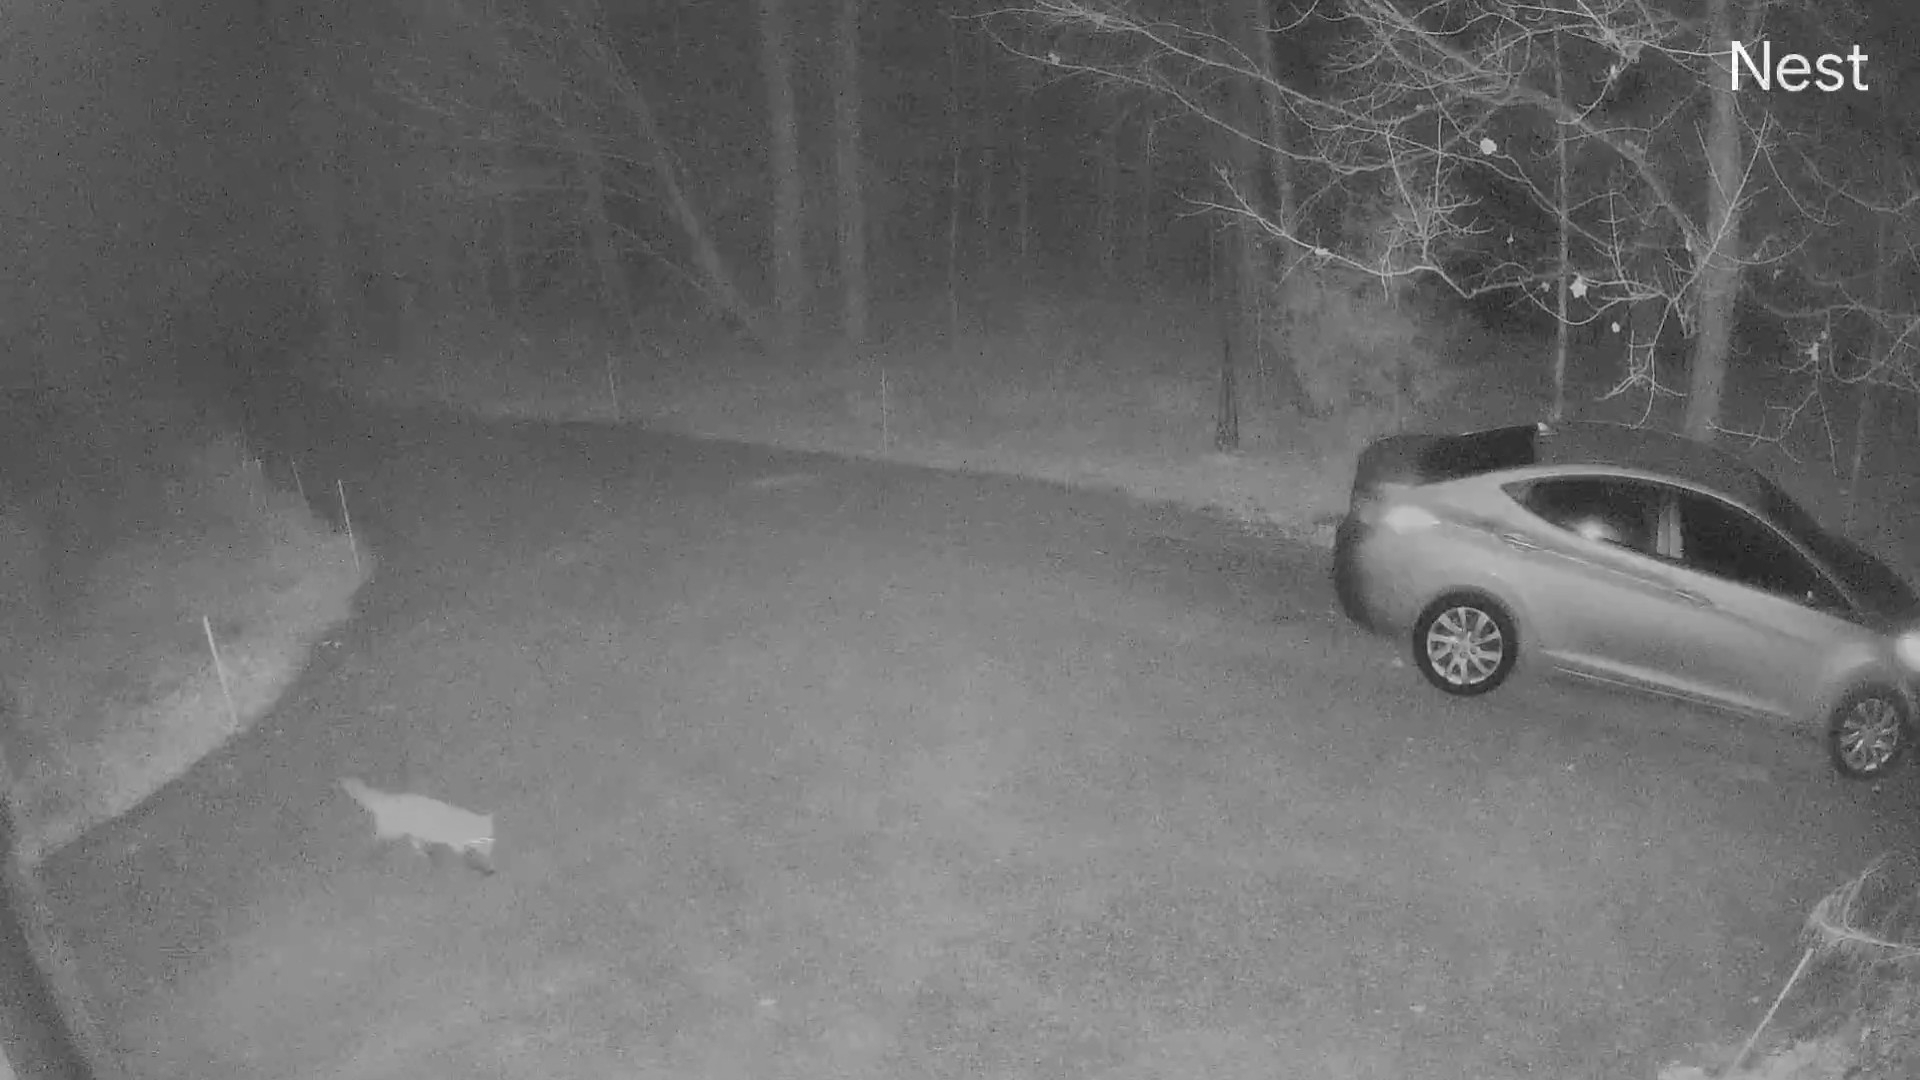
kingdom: Animalia
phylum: Chordata
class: Mammalia
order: Carnivora
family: Canidae
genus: Vulpes
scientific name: Vulpes vulpes
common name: Red fox
